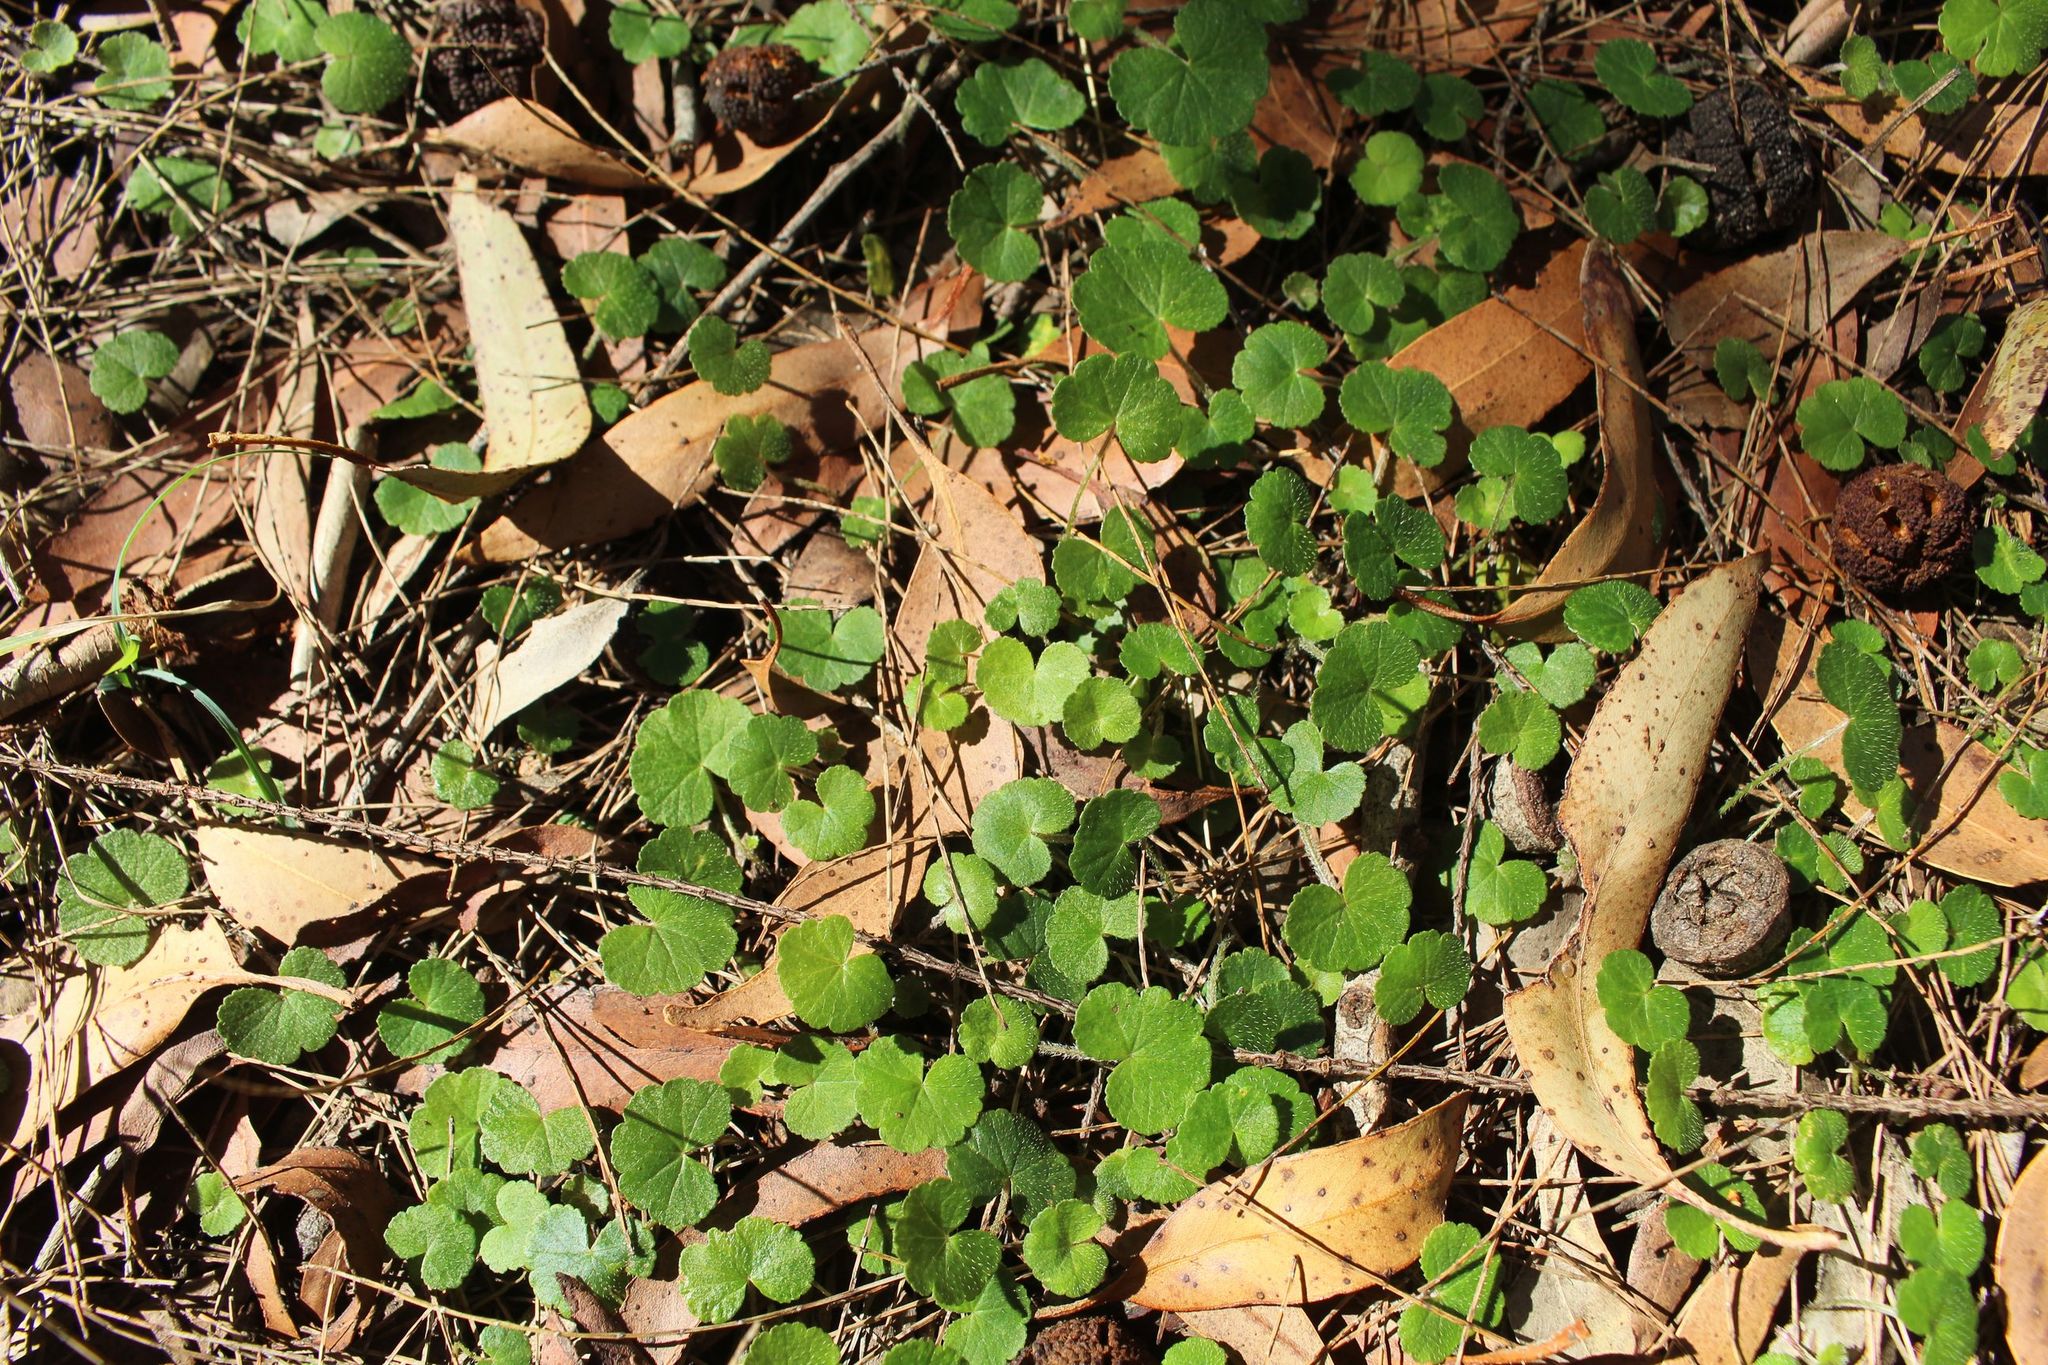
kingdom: Plantae
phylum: Tracheophyta
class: Magnoliopsida
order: Apiales
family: Araliaceae
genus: Hydrocotyle
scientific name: Hydrocotyle hirta
